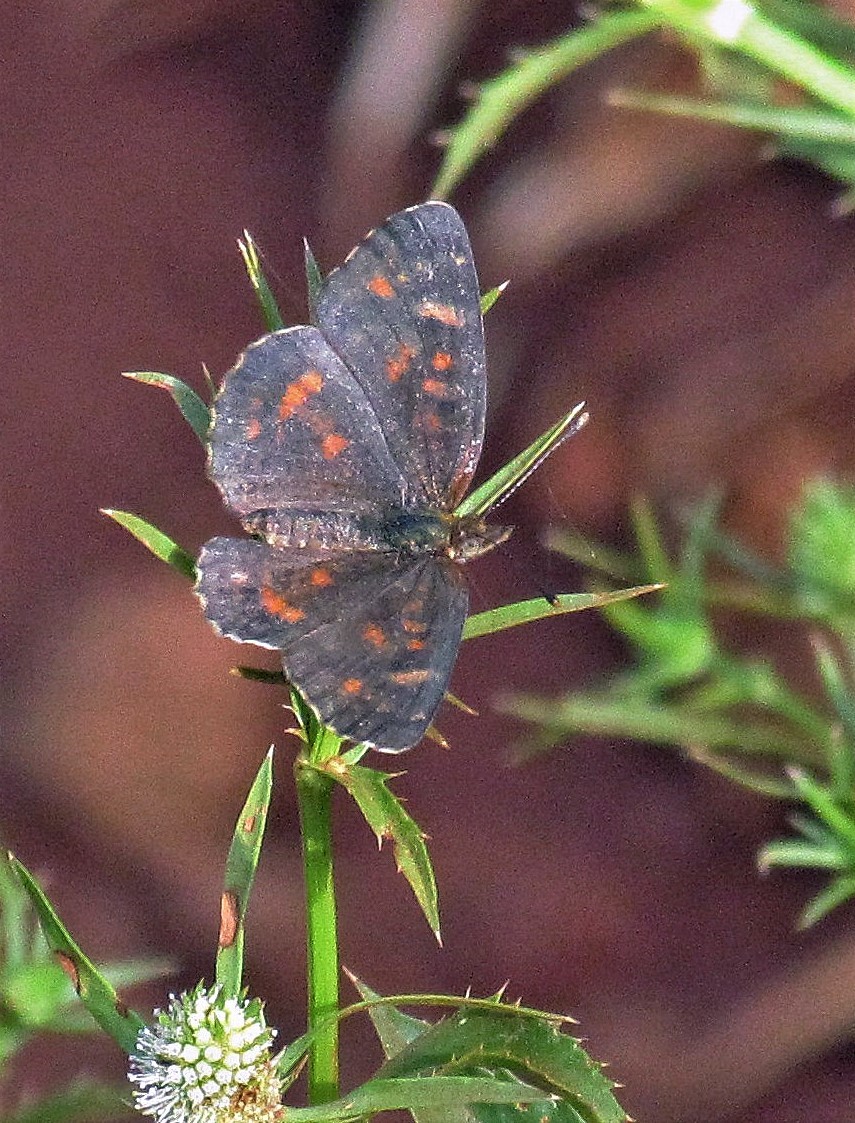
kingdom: Animalia
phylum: Arthropoda
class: Insecta
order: Lepidoptera
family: Nymphalidae
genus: Ortilia
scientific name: Ortilia velica
